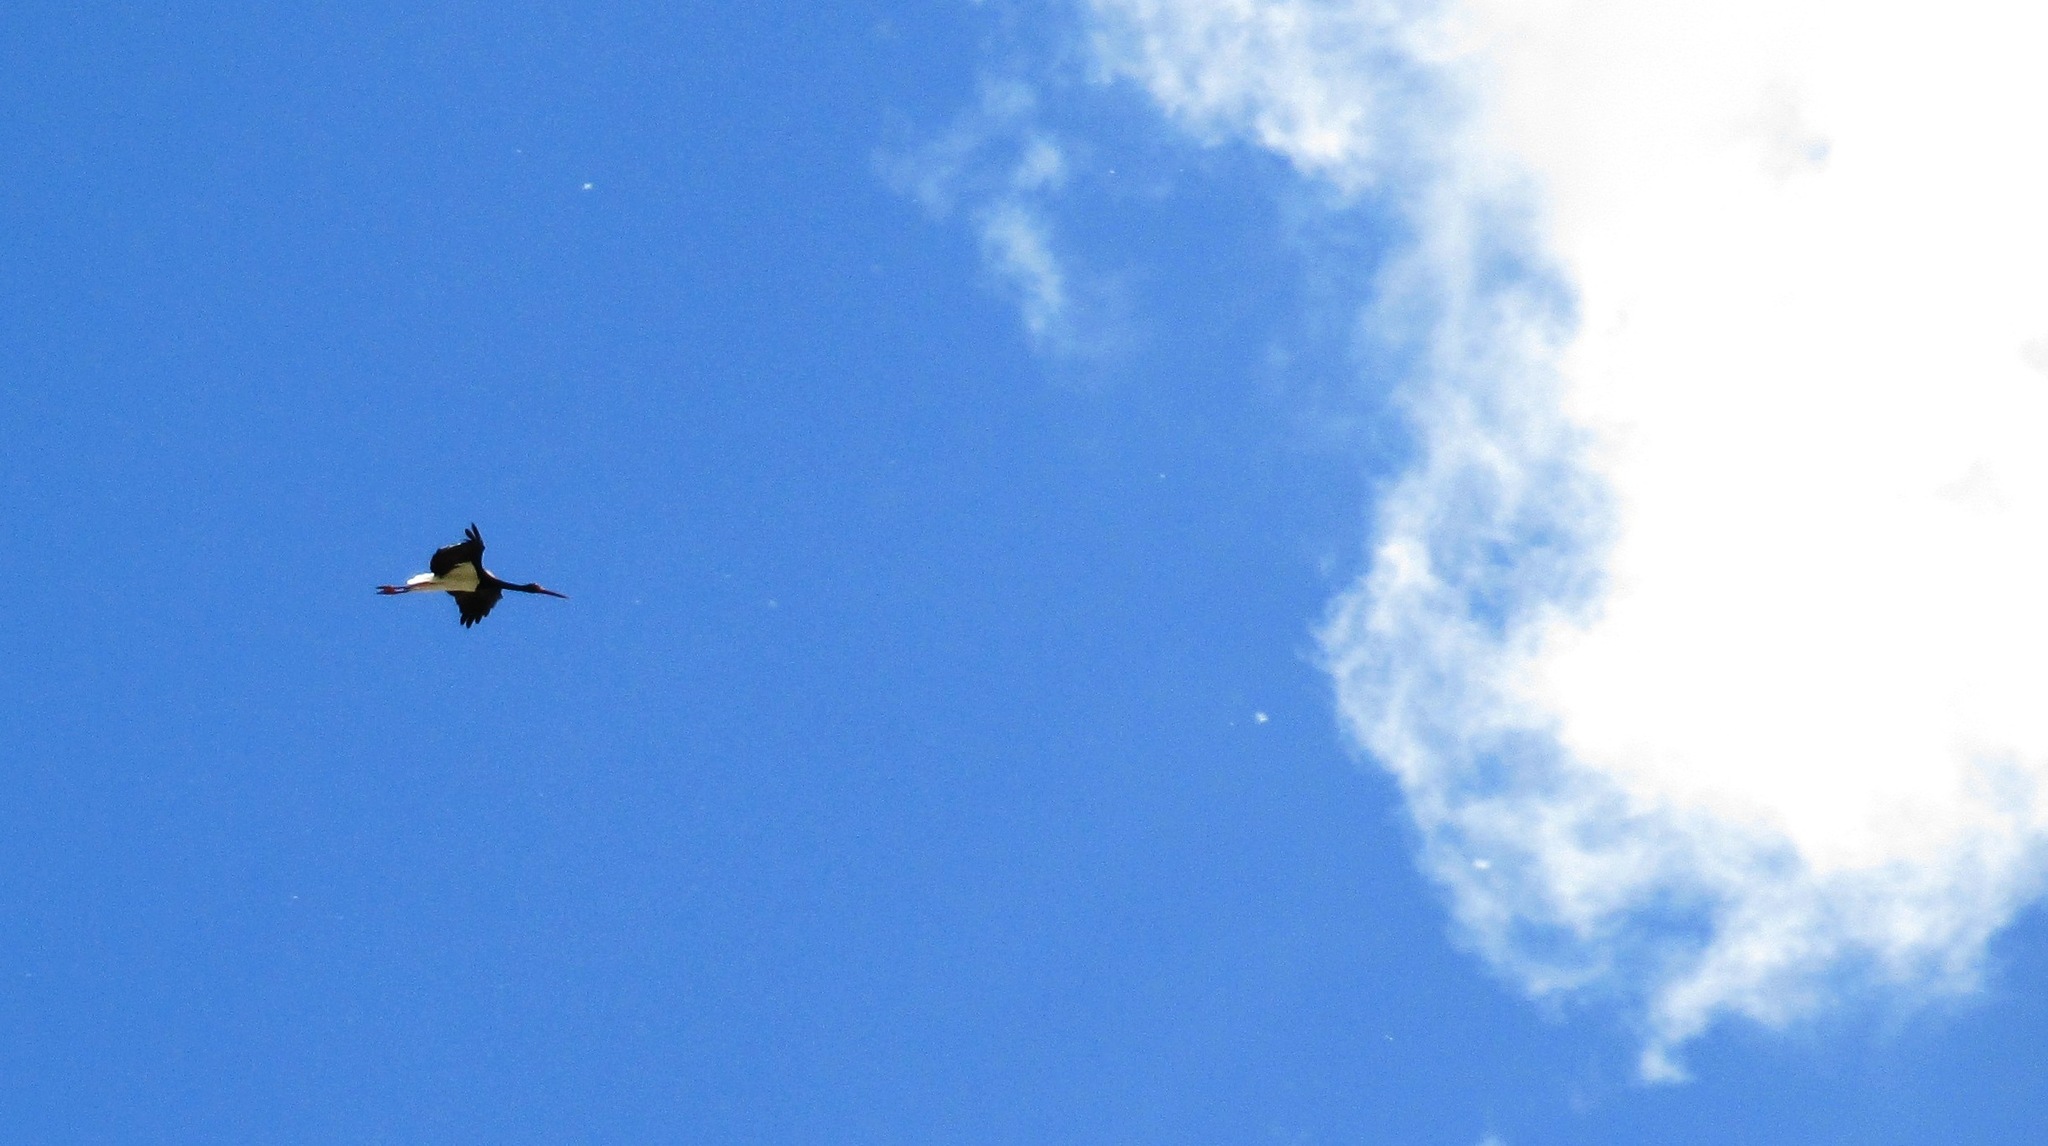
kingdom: Animalia
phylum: Chordata
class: Aves
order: Ciconiiformes
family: Ciconiidae
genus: Ciconia
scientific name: Ciconia nigra
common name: Black stork
